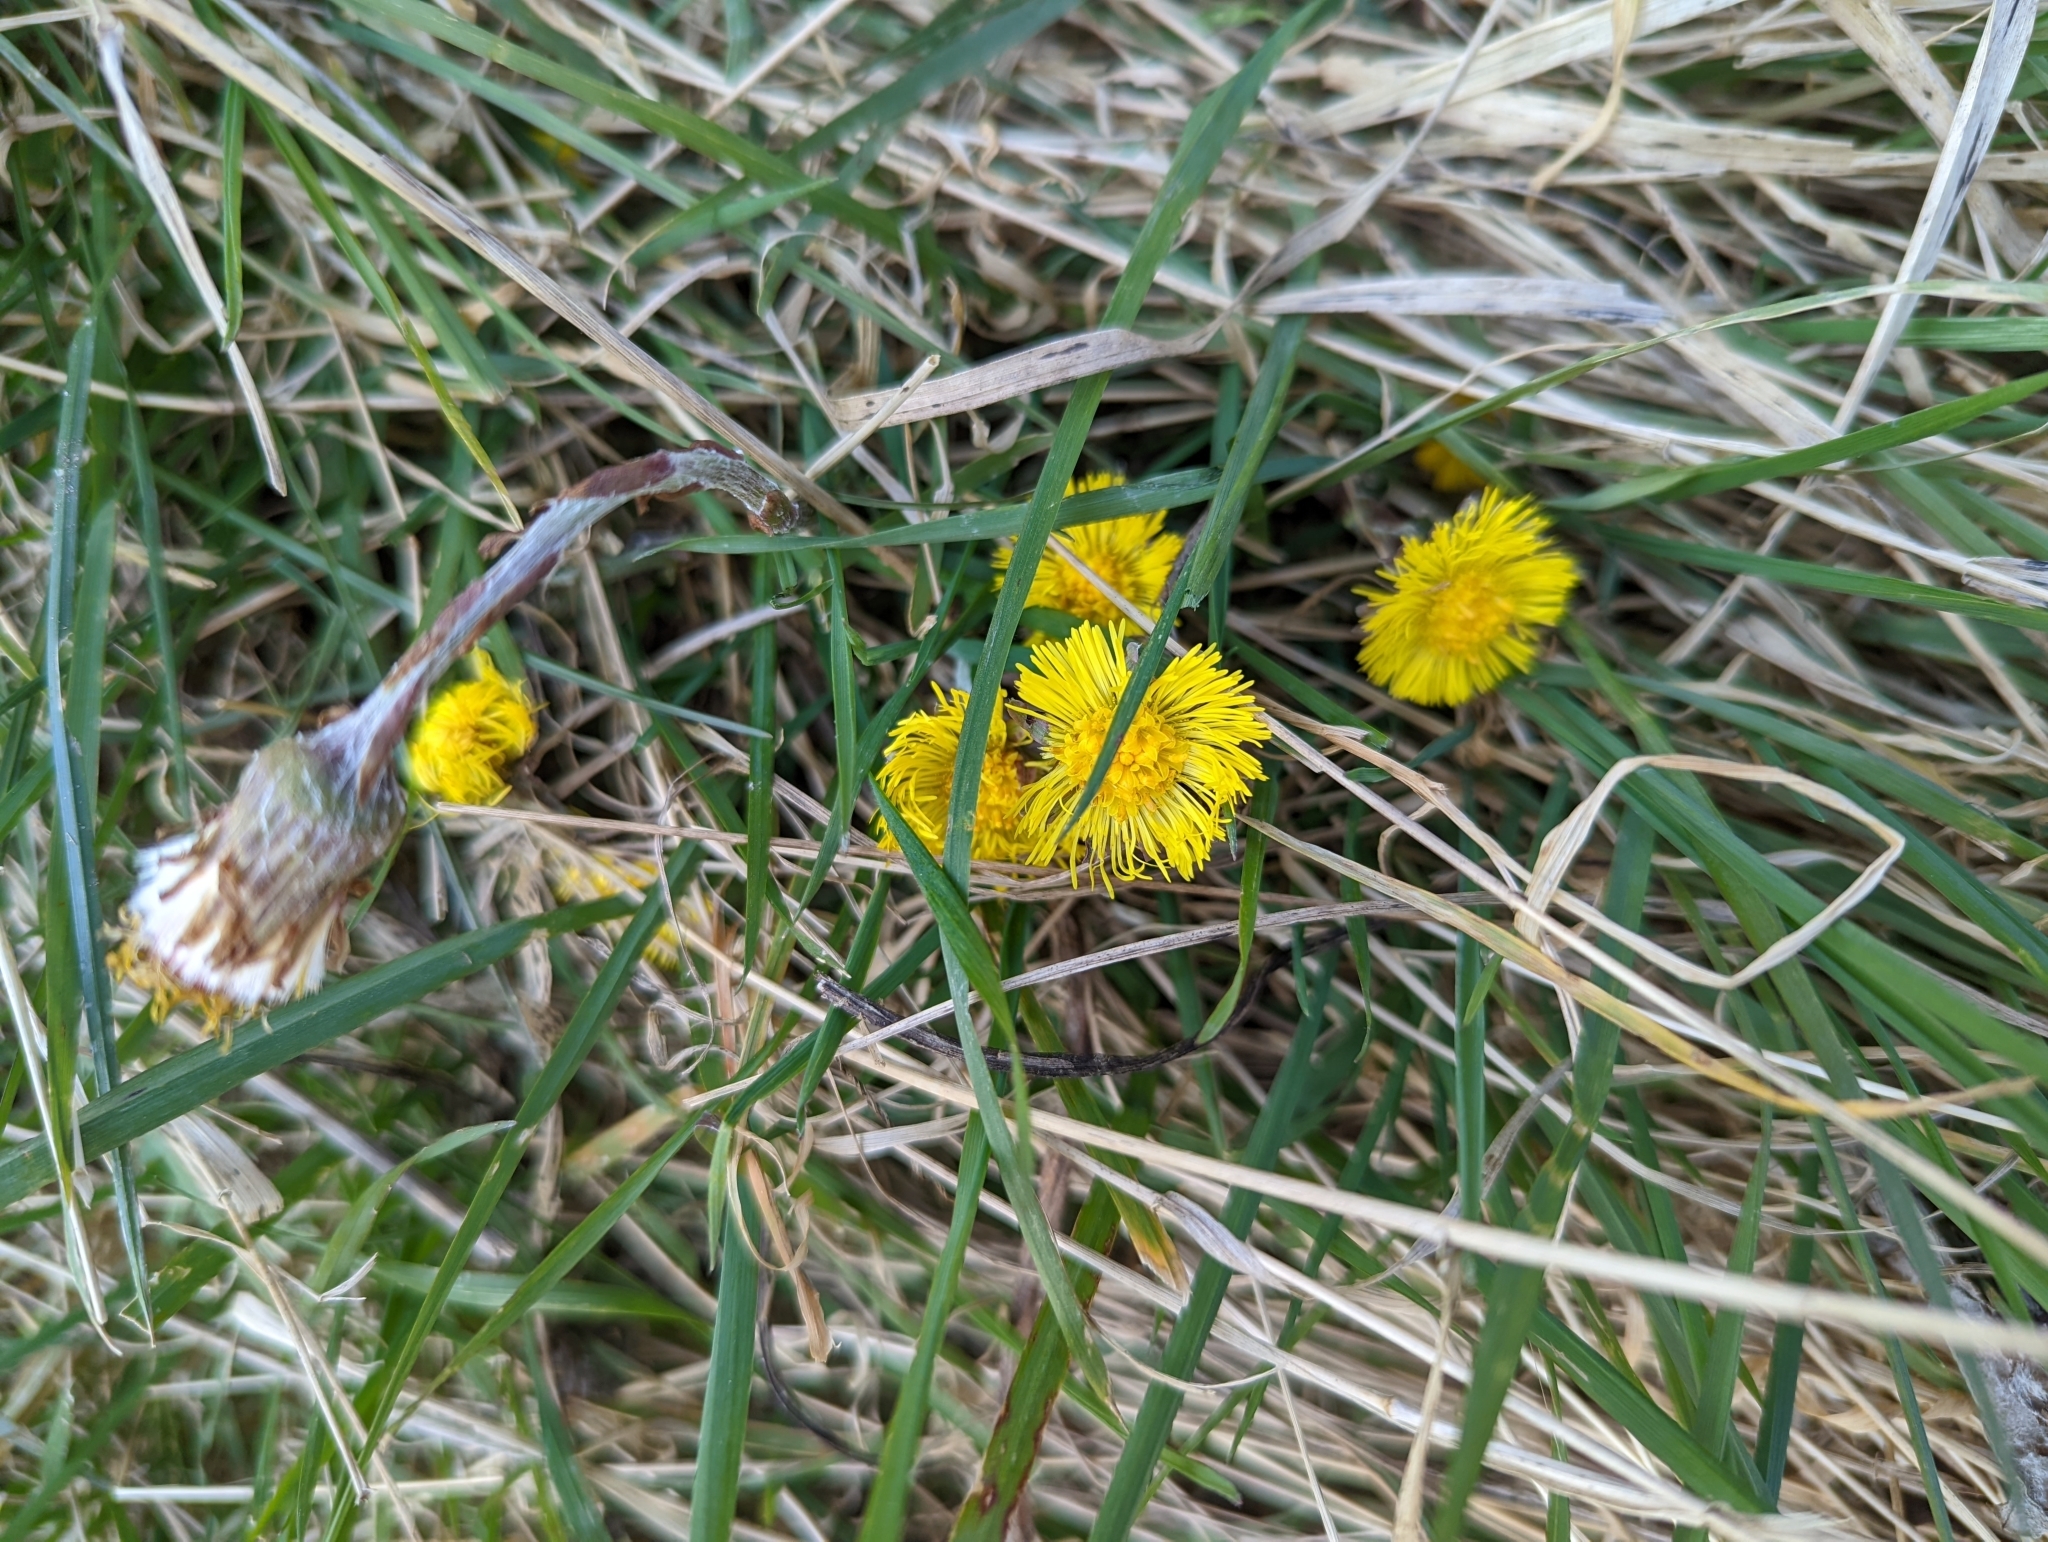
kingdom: Plantae
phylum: Tracheophyta
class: Magnoliopsida
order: Asterales
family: Asteraceae
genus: Tussilago
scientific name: Tussilago farfara
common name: Coltsfoot
